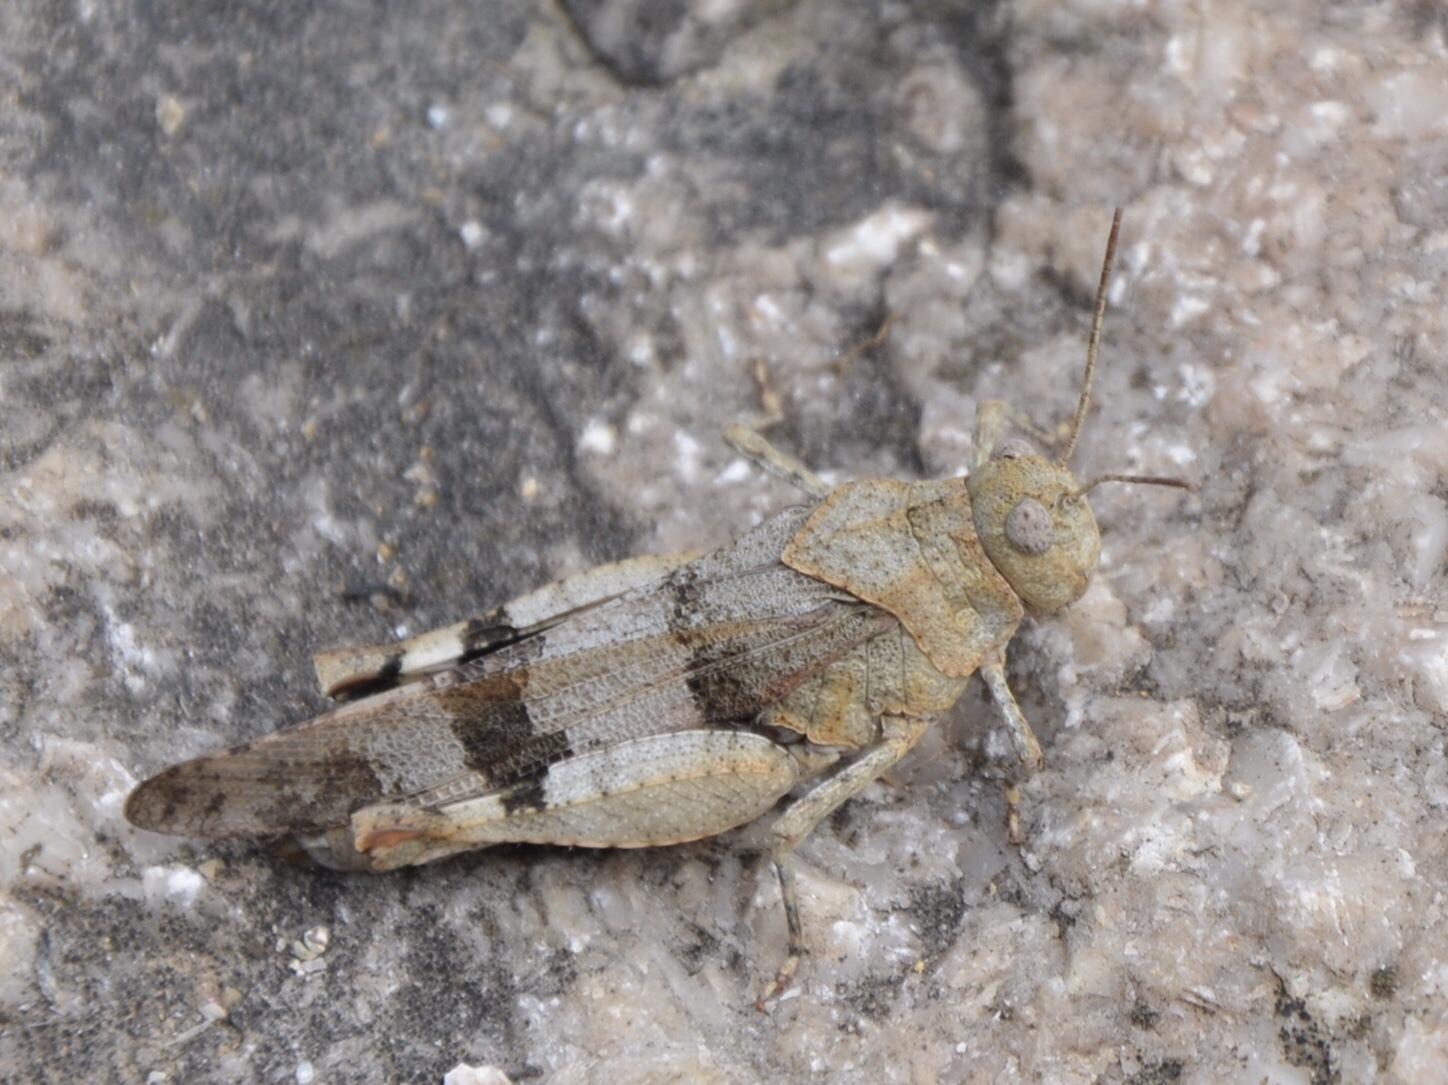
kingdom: Animalia
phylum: Arthropoda
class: Insecta
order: Orthoptera
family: Acrididae
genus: Oedipoda
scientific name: Oedipoda caerulescens
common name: Blue-winged grasshopper
